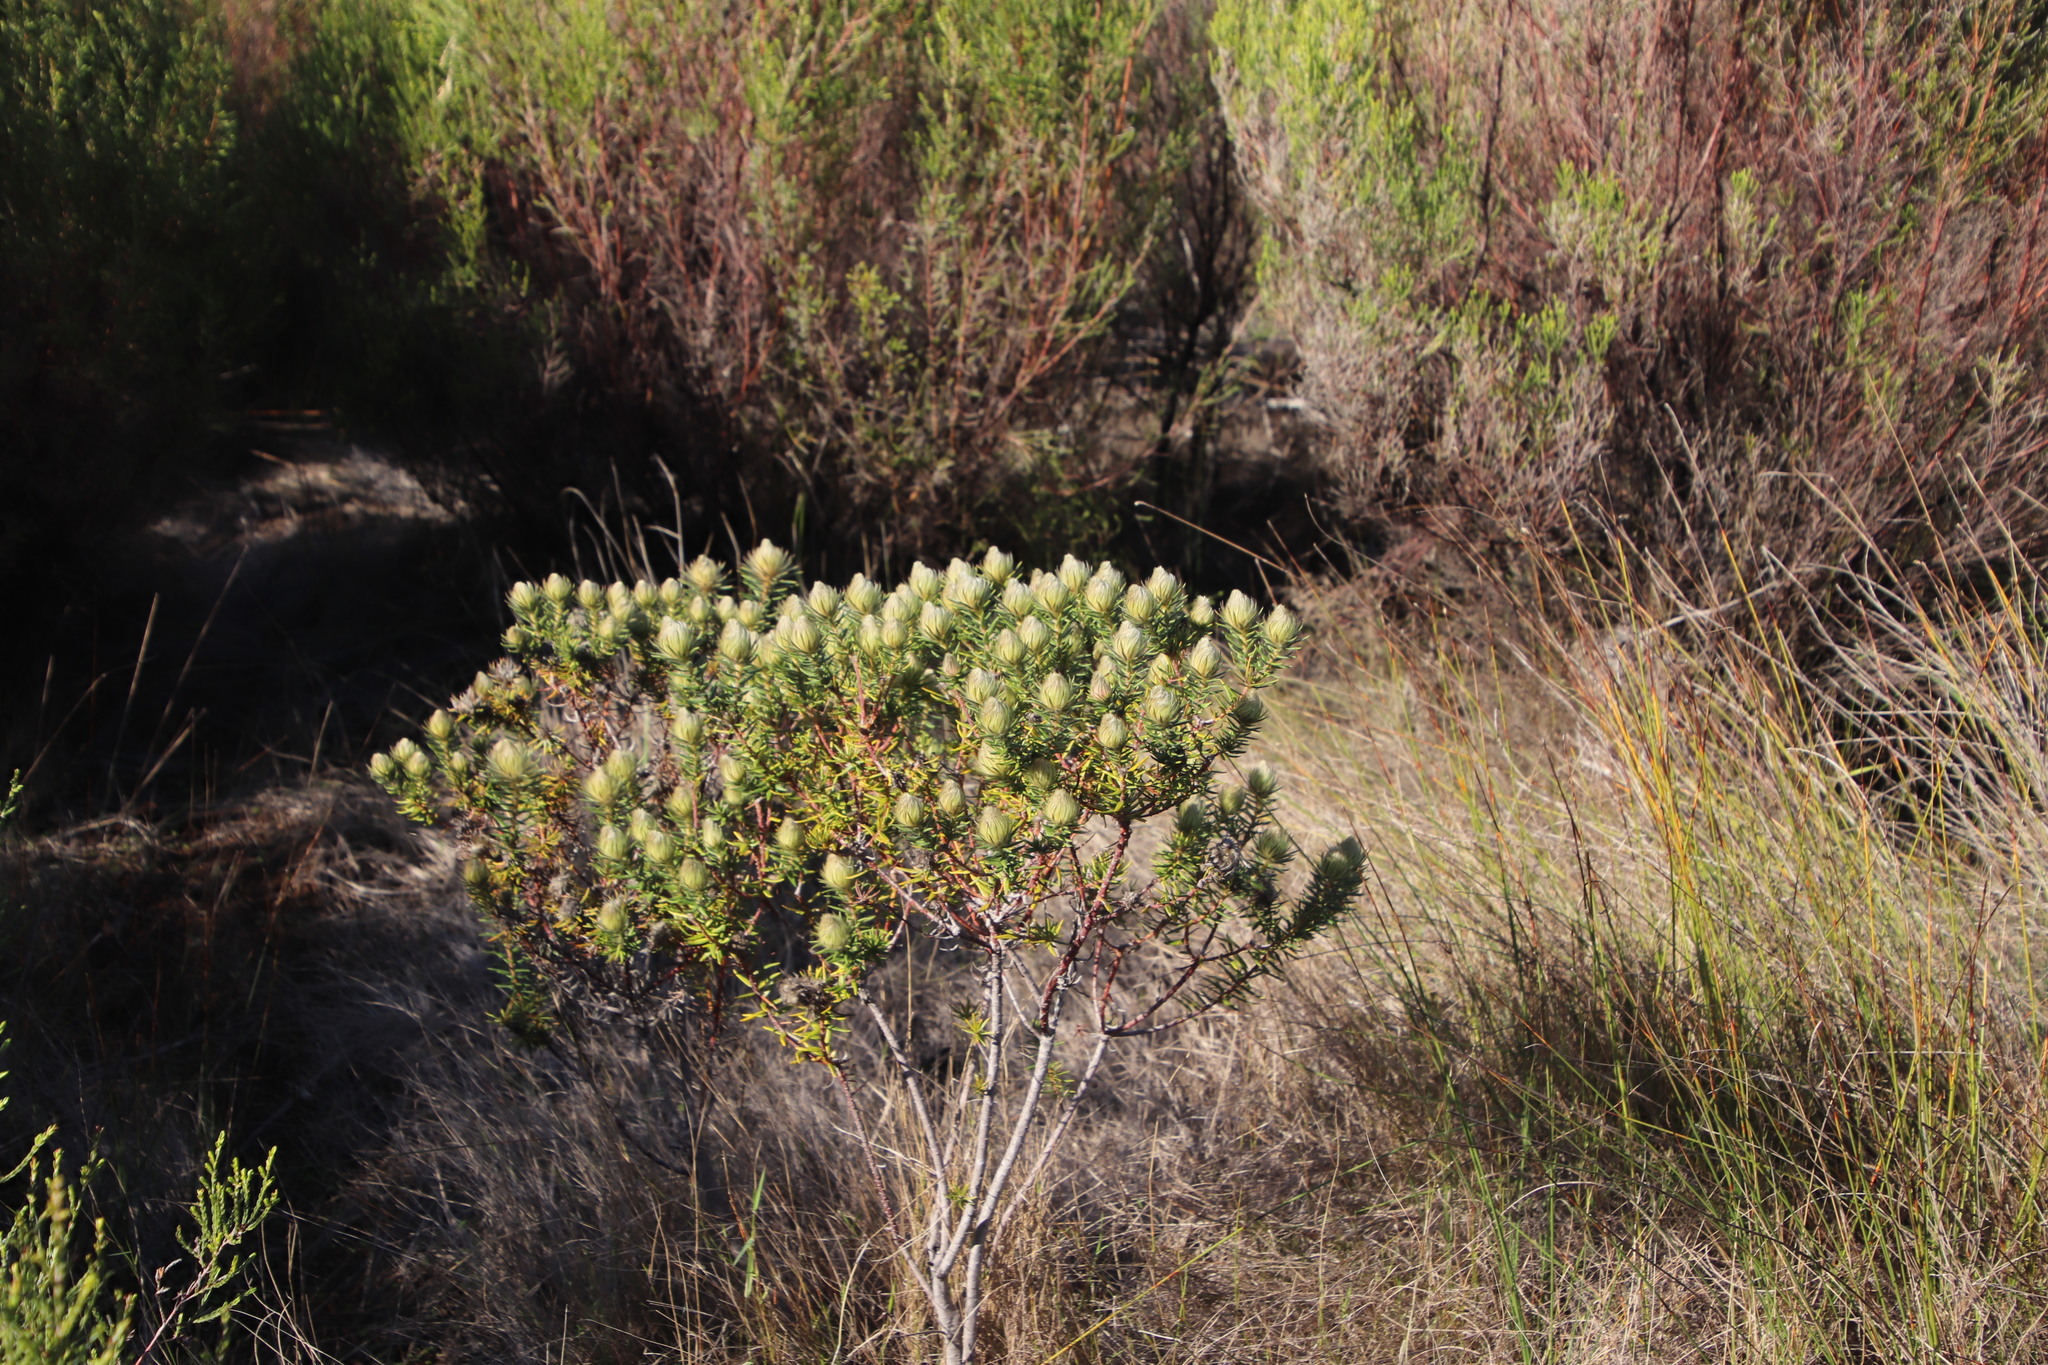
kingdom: Plantae
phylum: Tracheophyta
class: Magnoliopsida
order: Rosales
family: Rhamnaceae
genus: Phylica
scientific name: Phylica pubescens
